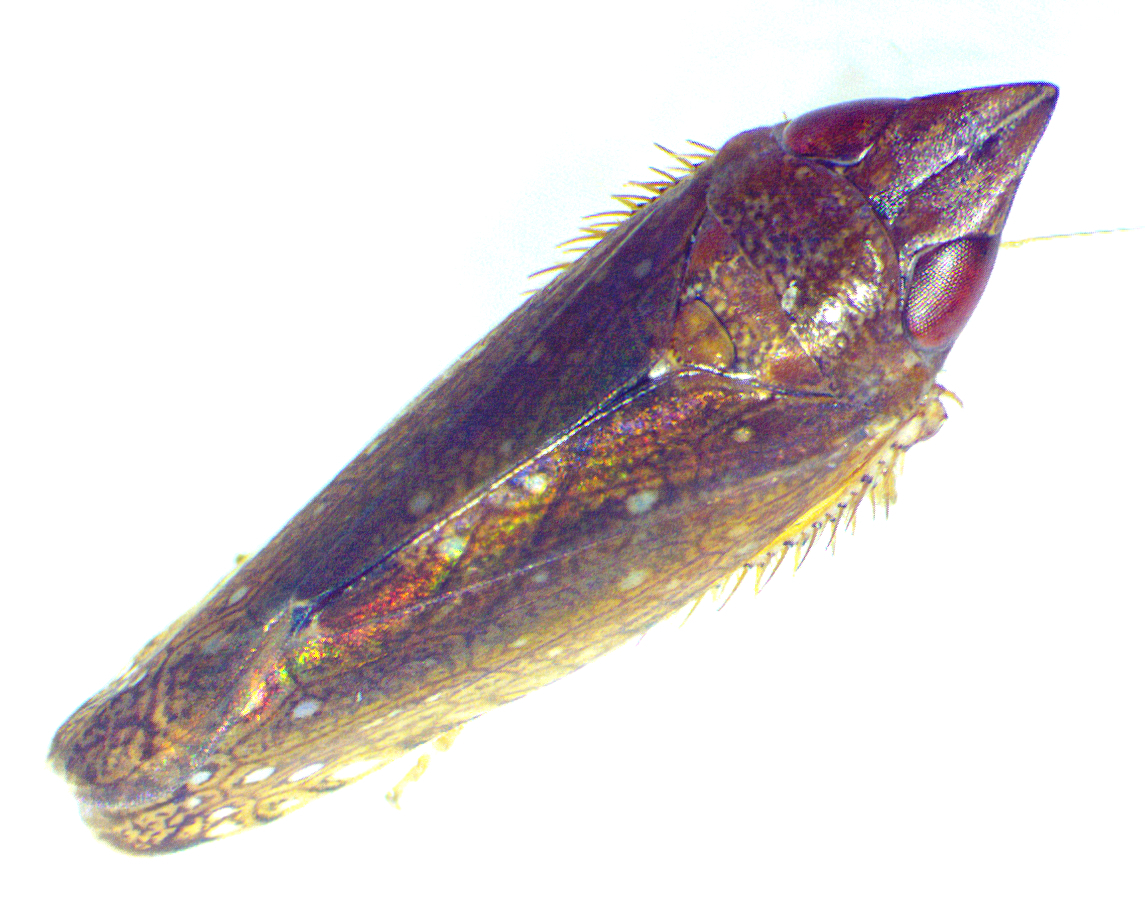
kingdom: Animalia
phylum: Arthropoda
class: Insecta
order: Hemiptera
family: Cicadellidae
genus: Scaphytopius
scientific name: Scaphytopius rubellus
